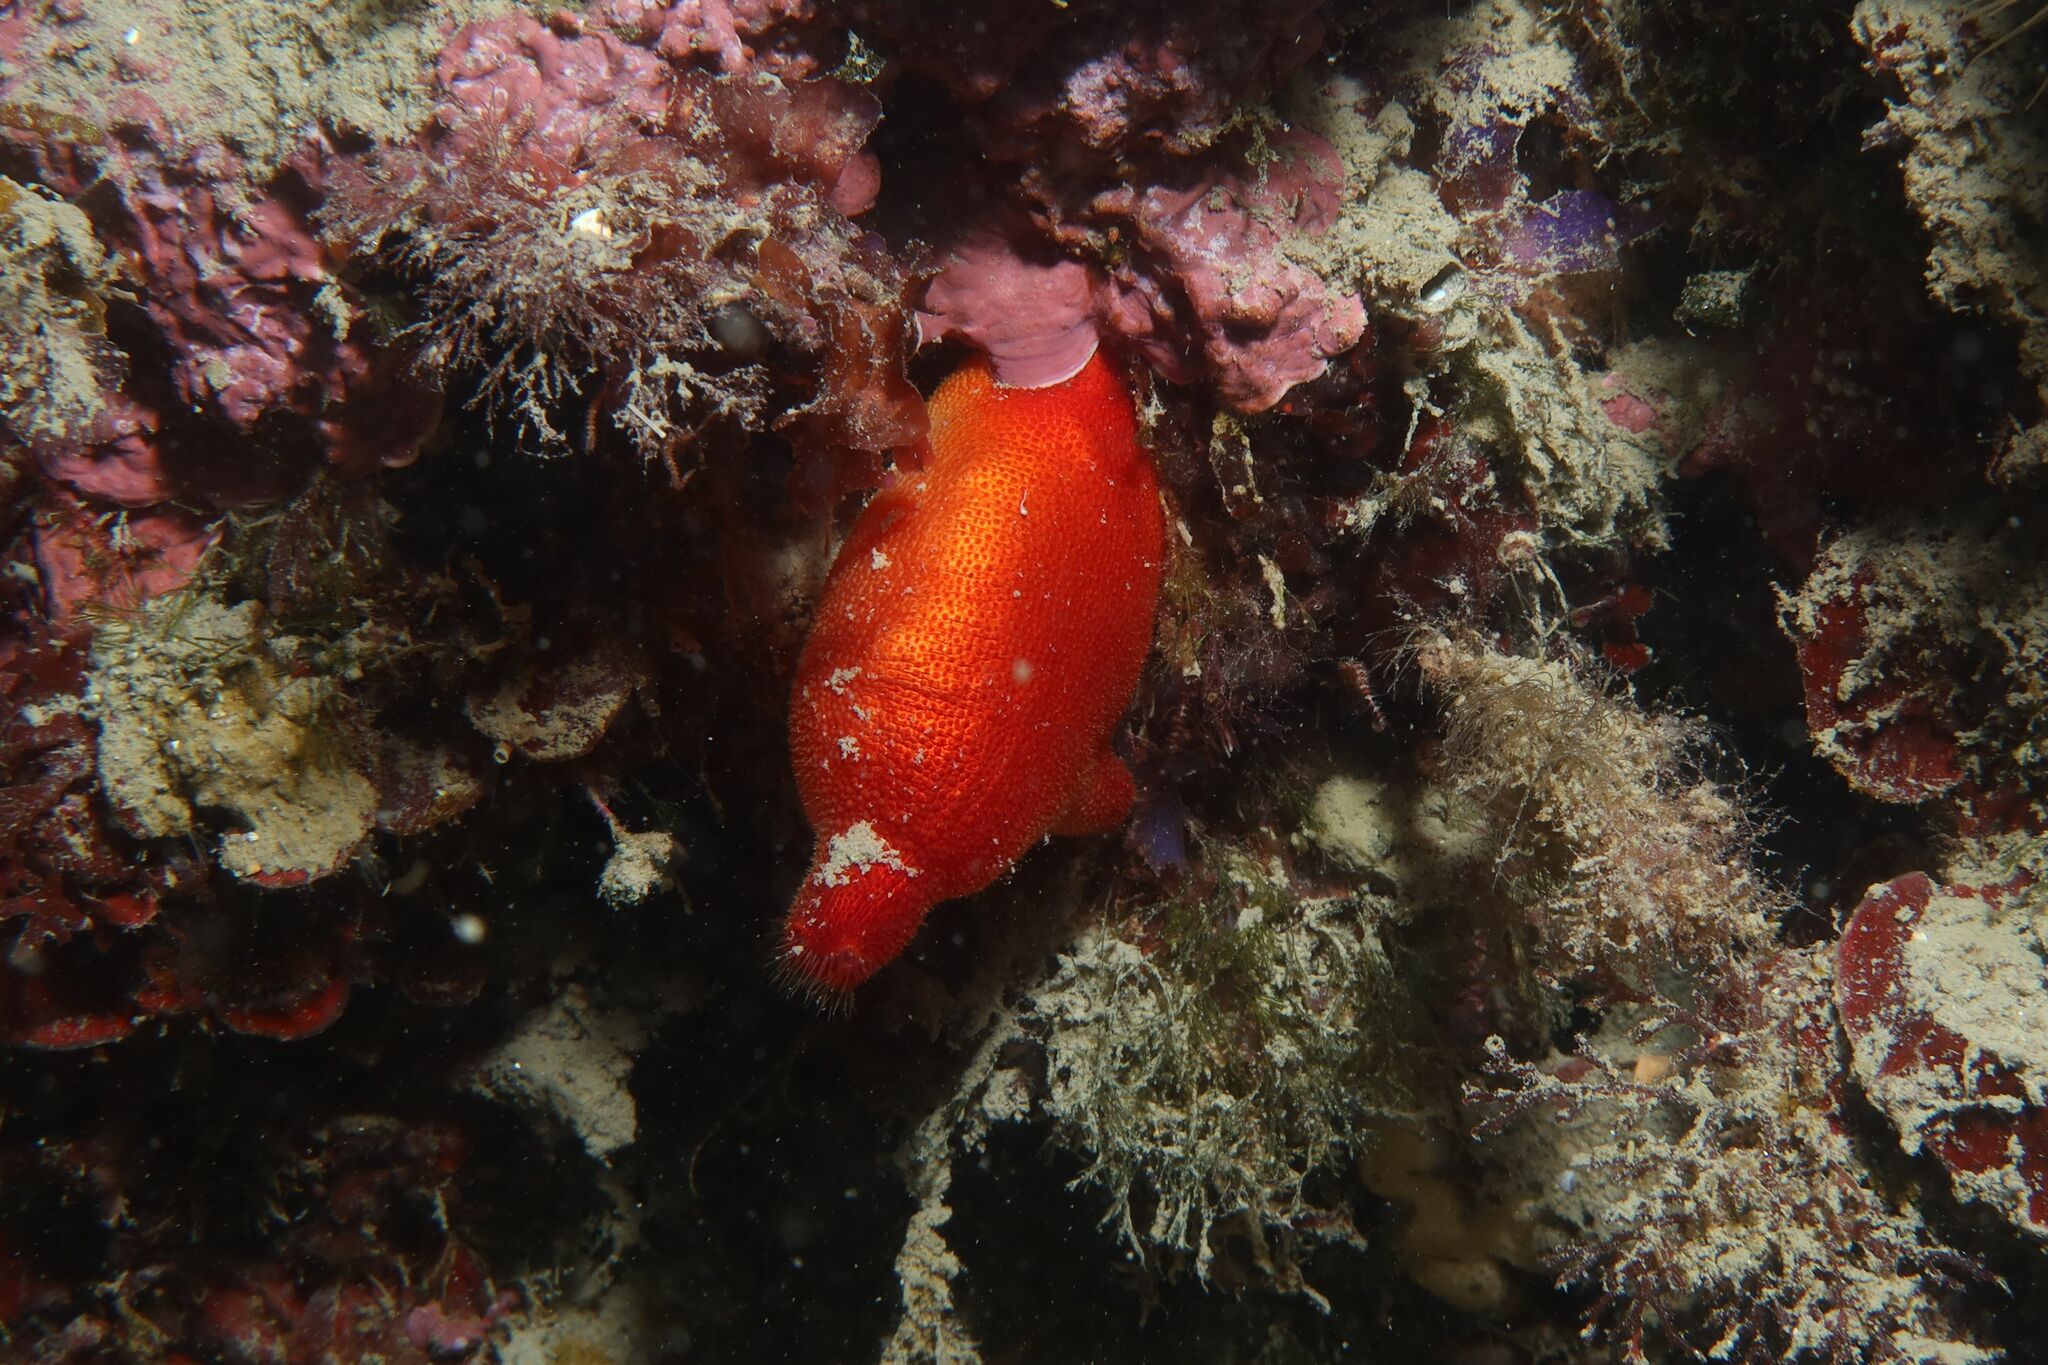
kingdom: Animalia
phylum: Chordata
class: Ascidiacea
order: Stolidobranchia
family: Pyuridae
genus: Halocynthia
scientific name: Halocynthia papillosa
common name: Red sea-squirt
